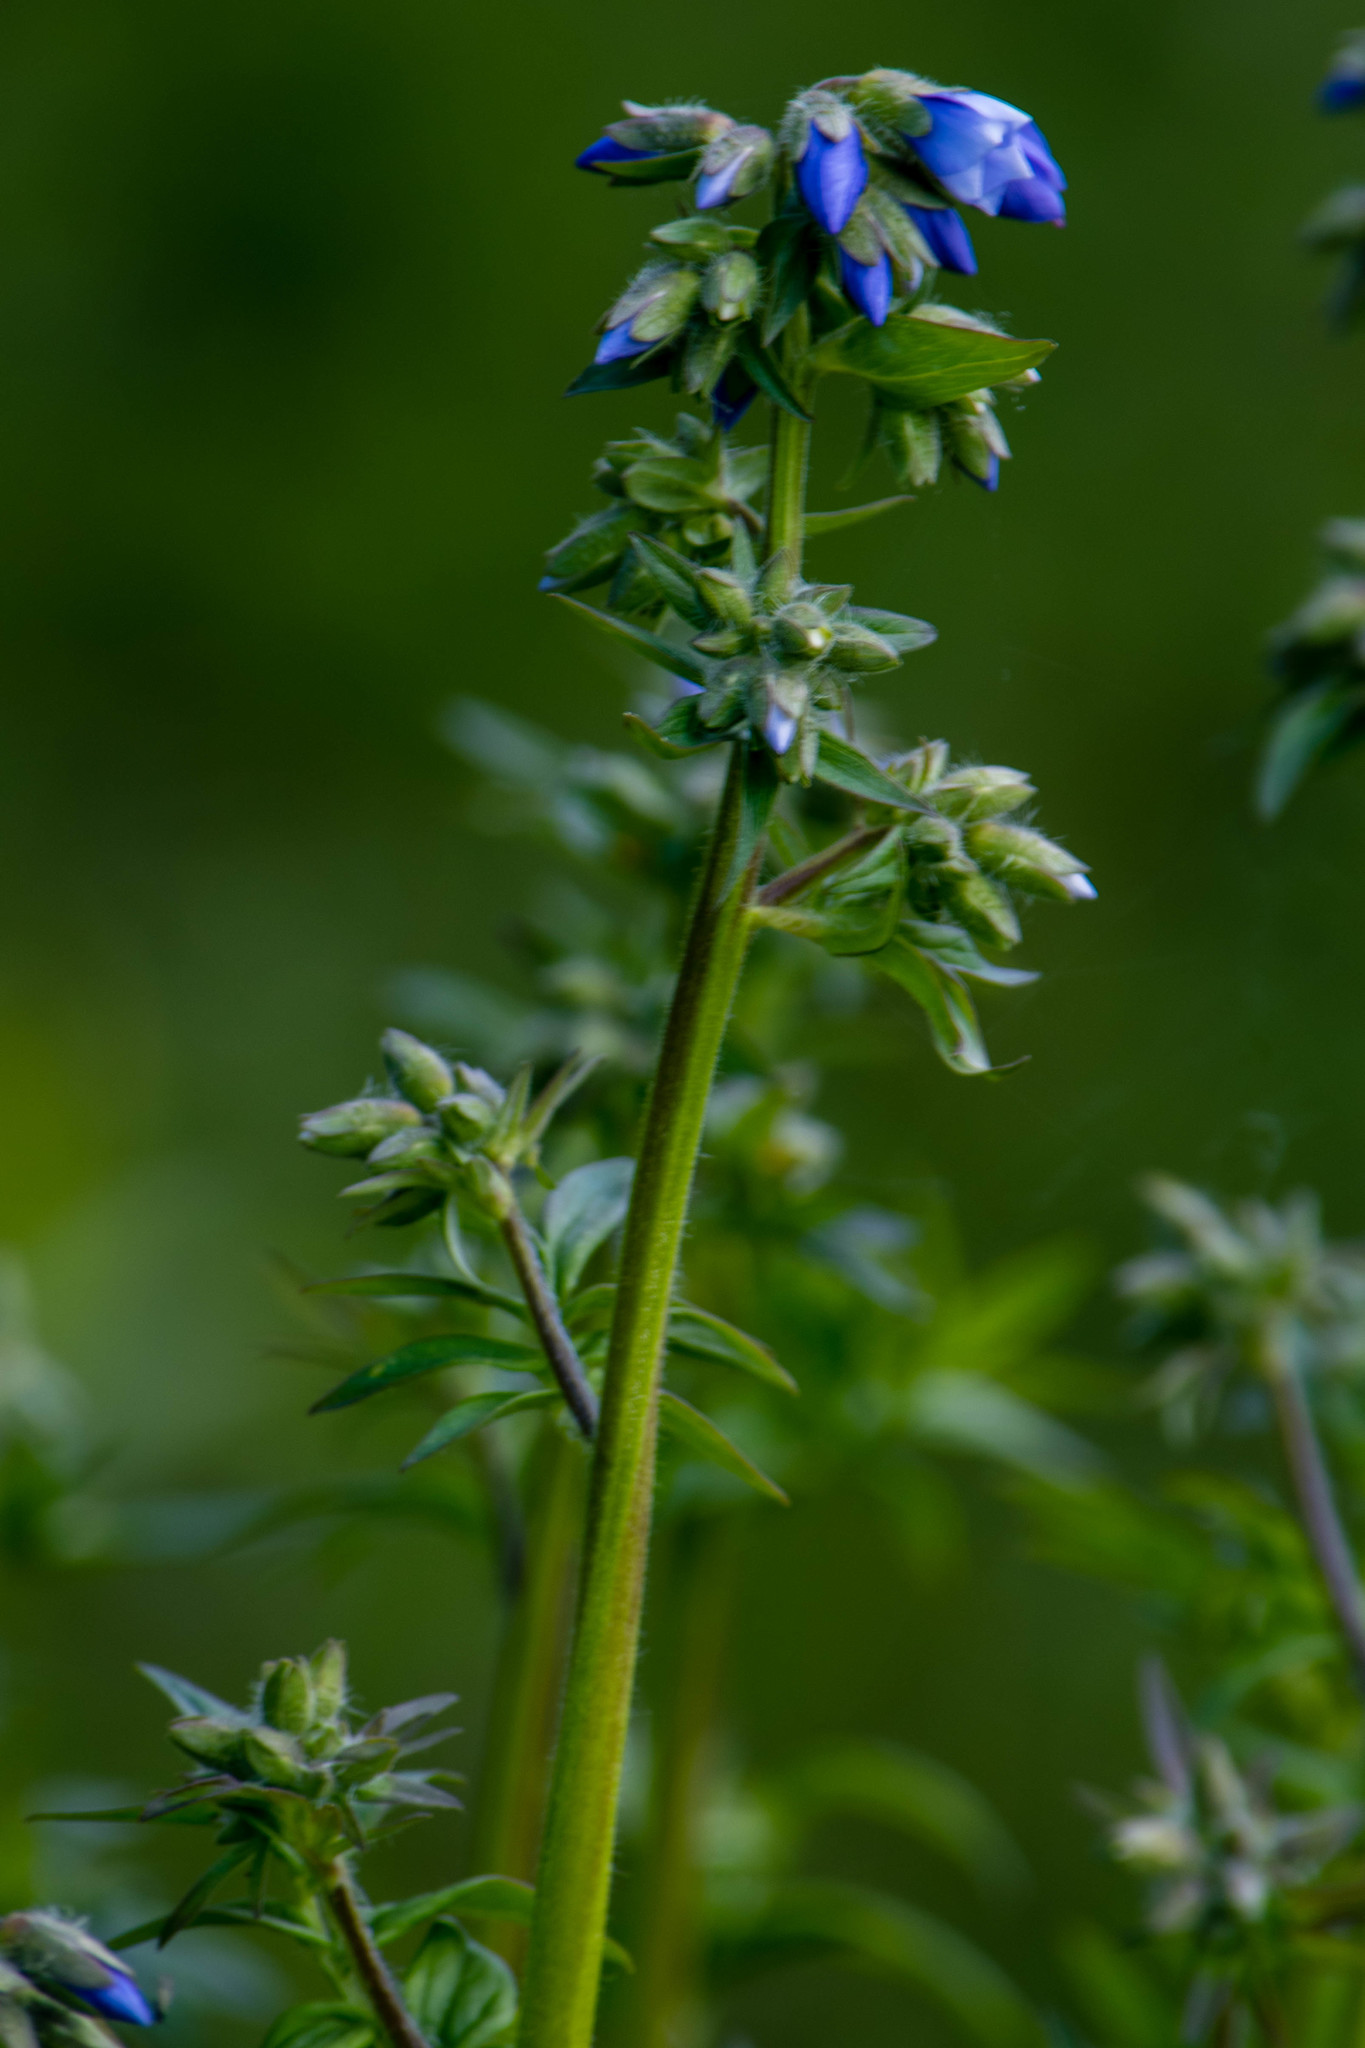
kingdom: Plantae
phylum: Tracheophyta
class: Magnoliopsida
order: Ericales
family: Polemoniaceae
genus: Polemonium
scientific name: Polemonium caeruleum
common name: Jacob's-ladder
